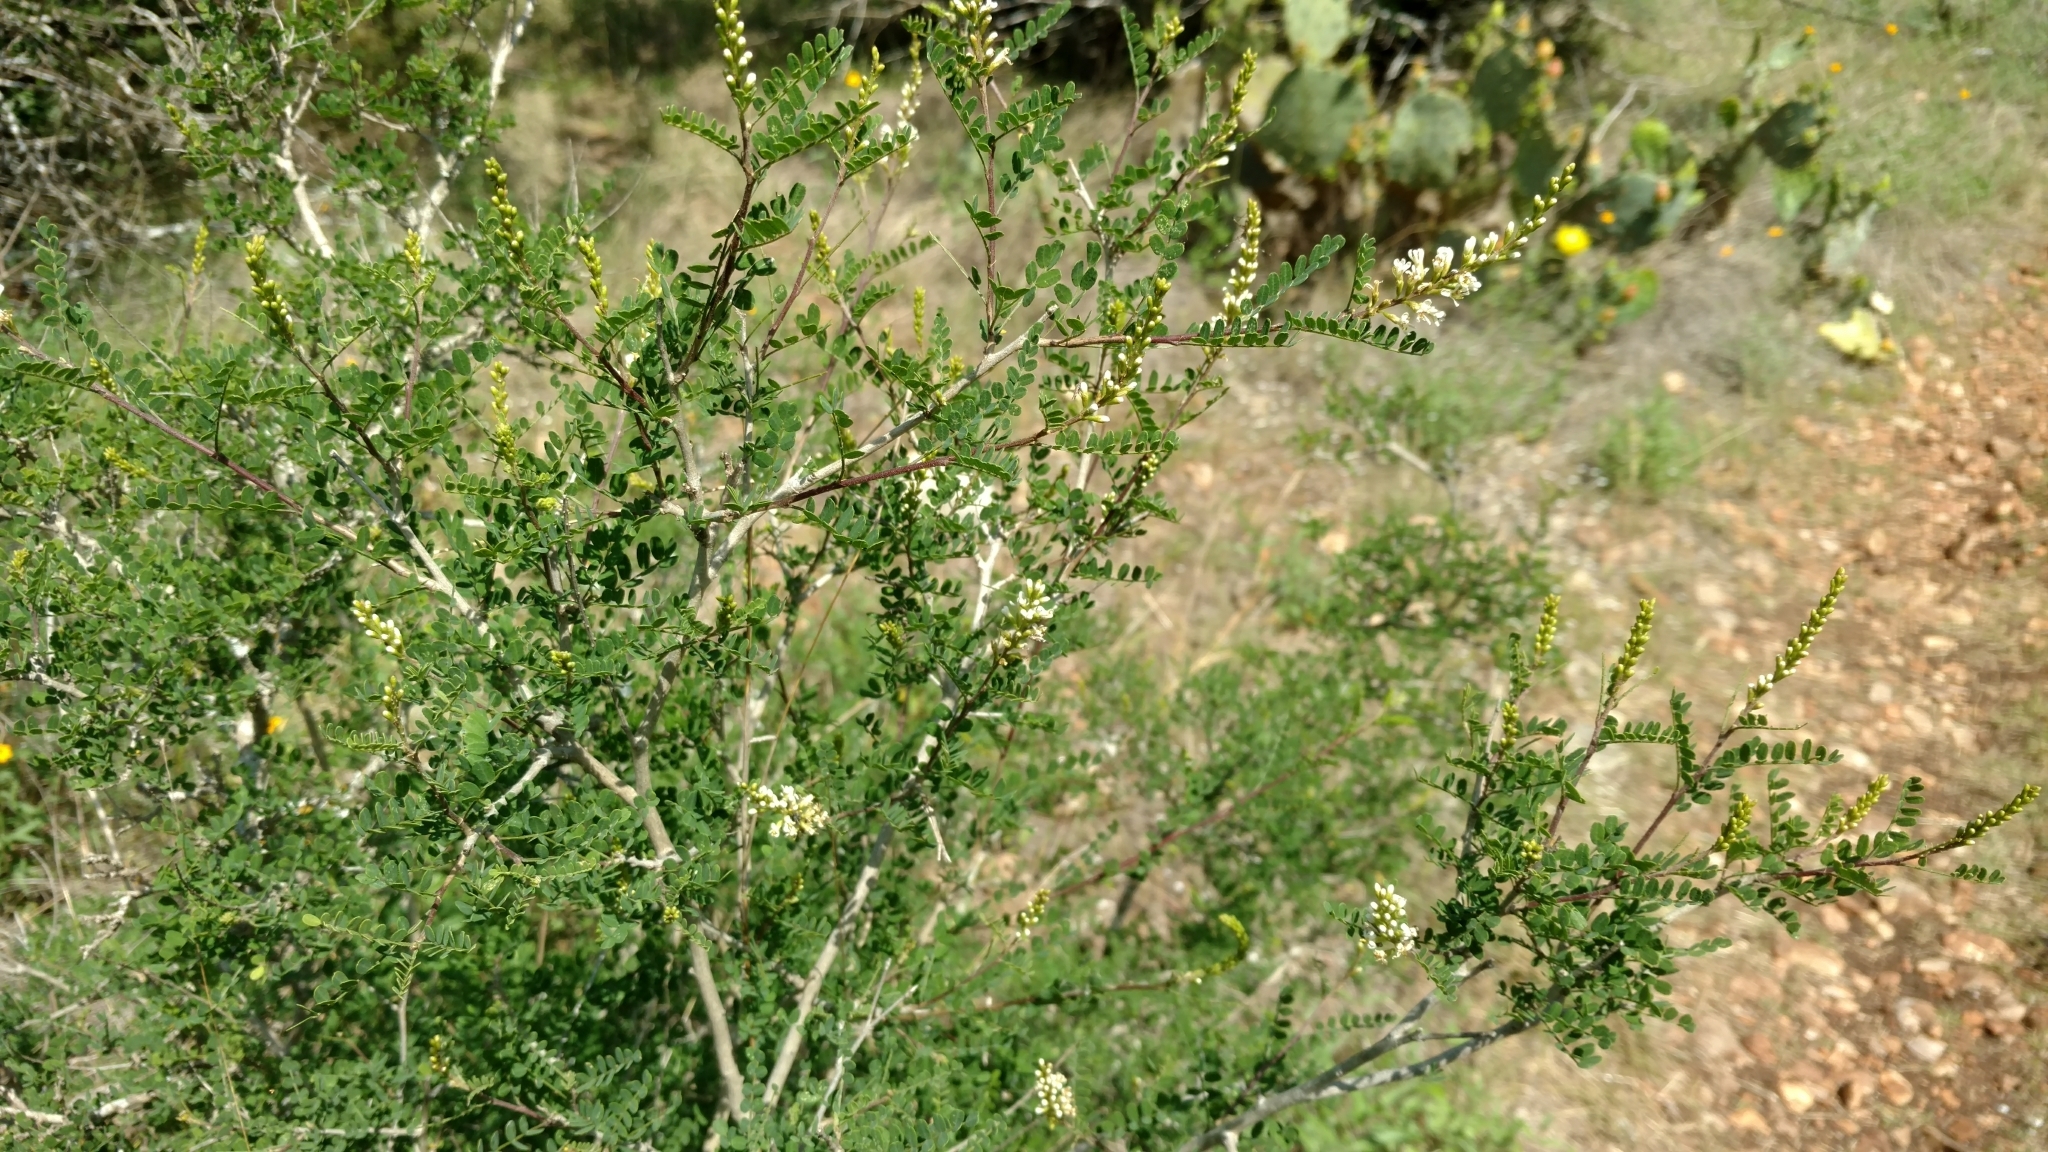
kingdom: Plantae
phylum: Tracheophyta
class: Magnoliopsida
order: Fabales
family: Fabaceae
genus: Eysenhardtia
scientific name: Eysenhardtia texana
